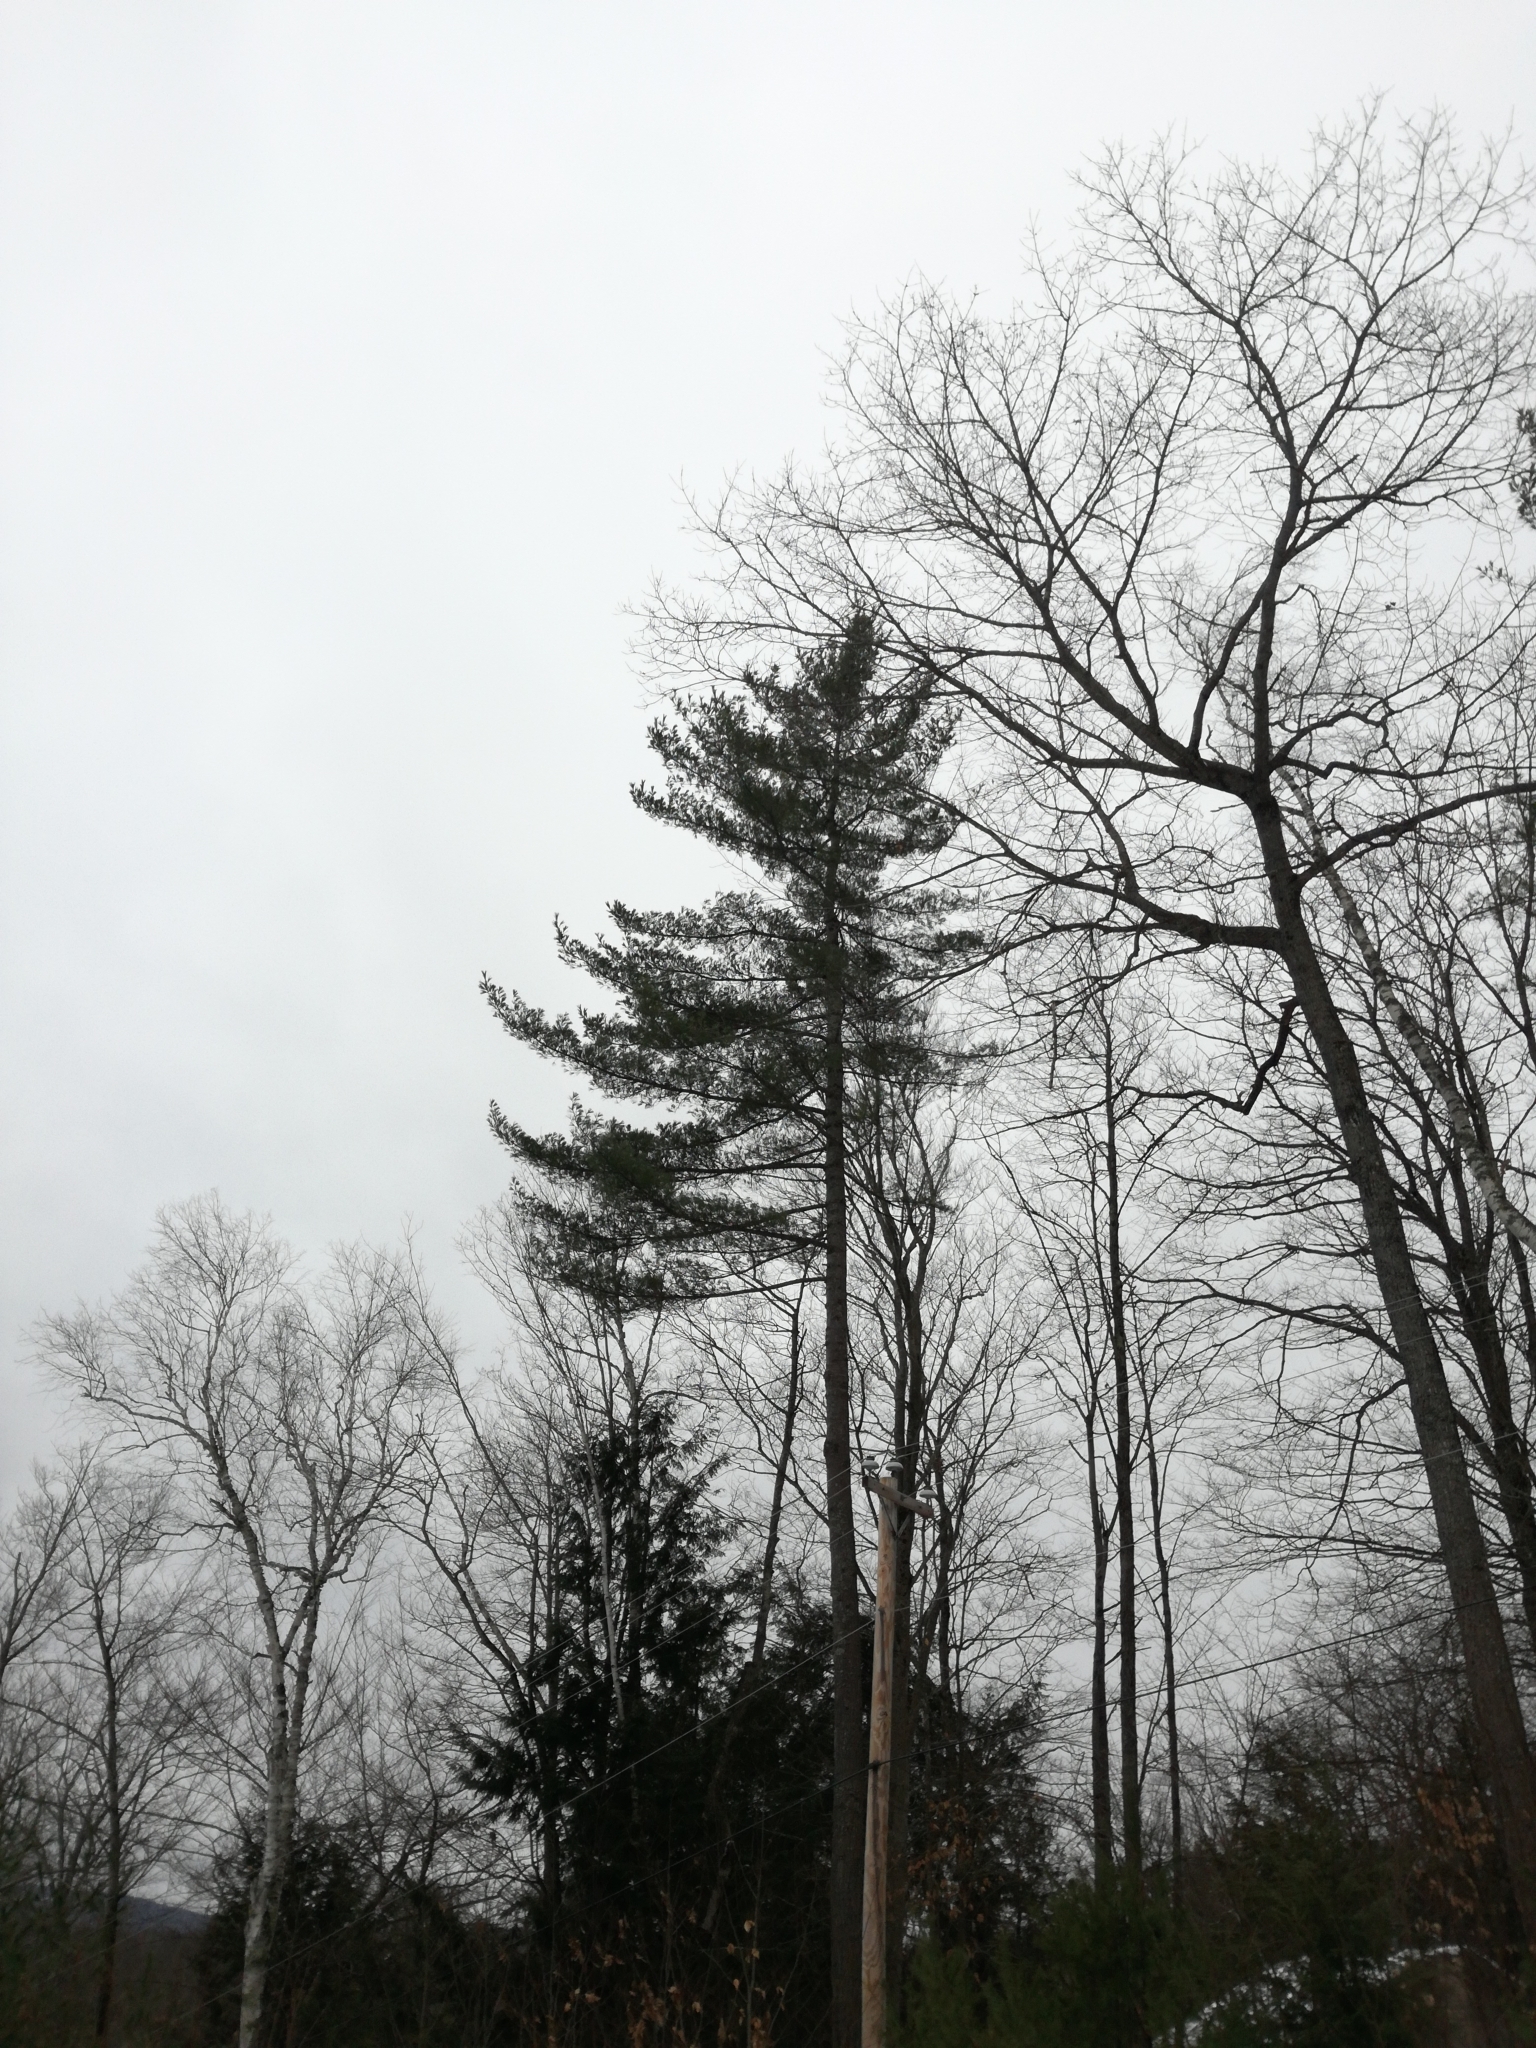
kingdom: Plantae
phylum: Tracheophyta
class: Pinopsida
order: Pinales
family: Pinaceae
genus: Pinus
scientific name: Pinus strobus
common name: Weymouth pine
